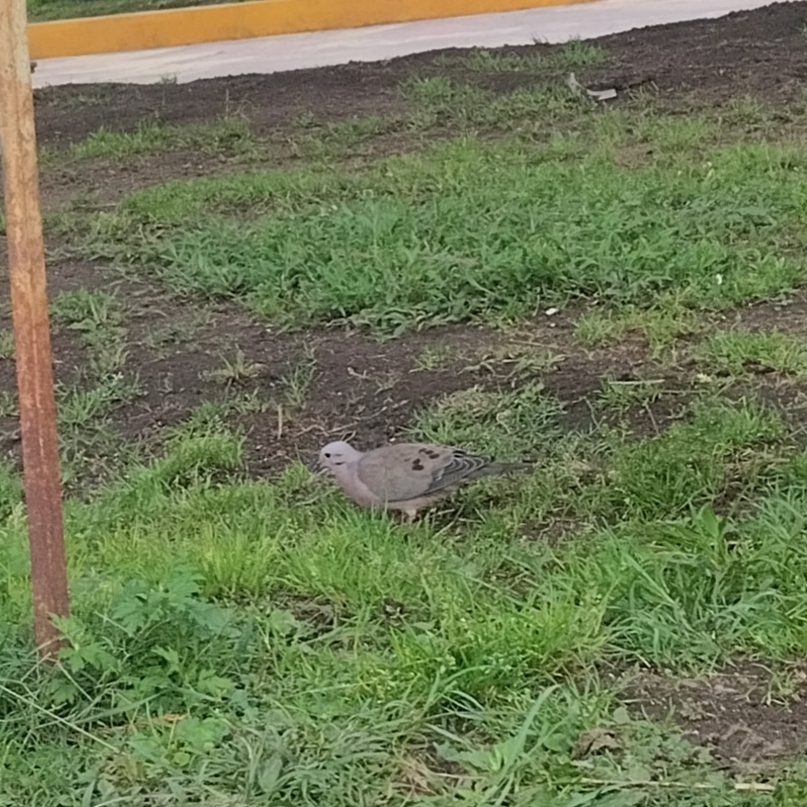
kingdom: Animalia
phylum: Chordata
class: Aves
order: Columbiformes
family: Columbidae
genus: Zenaida
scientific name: Zenaida auriculata
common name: Eared dove
